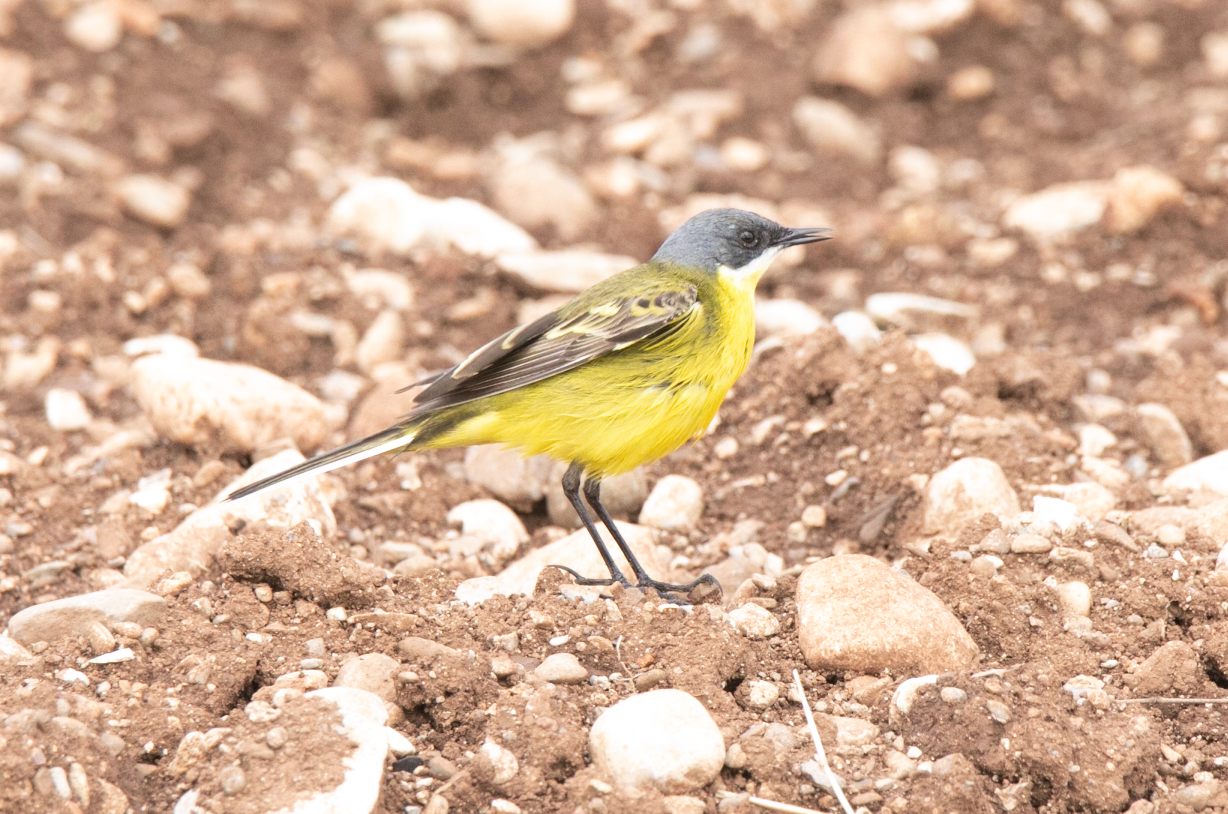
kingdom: Animalia
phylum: Chordata
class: Aves
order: Passeriformes
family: Motacillidae
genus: Motacilla
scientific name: Motacilla flava
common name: Western yellow wagtail
